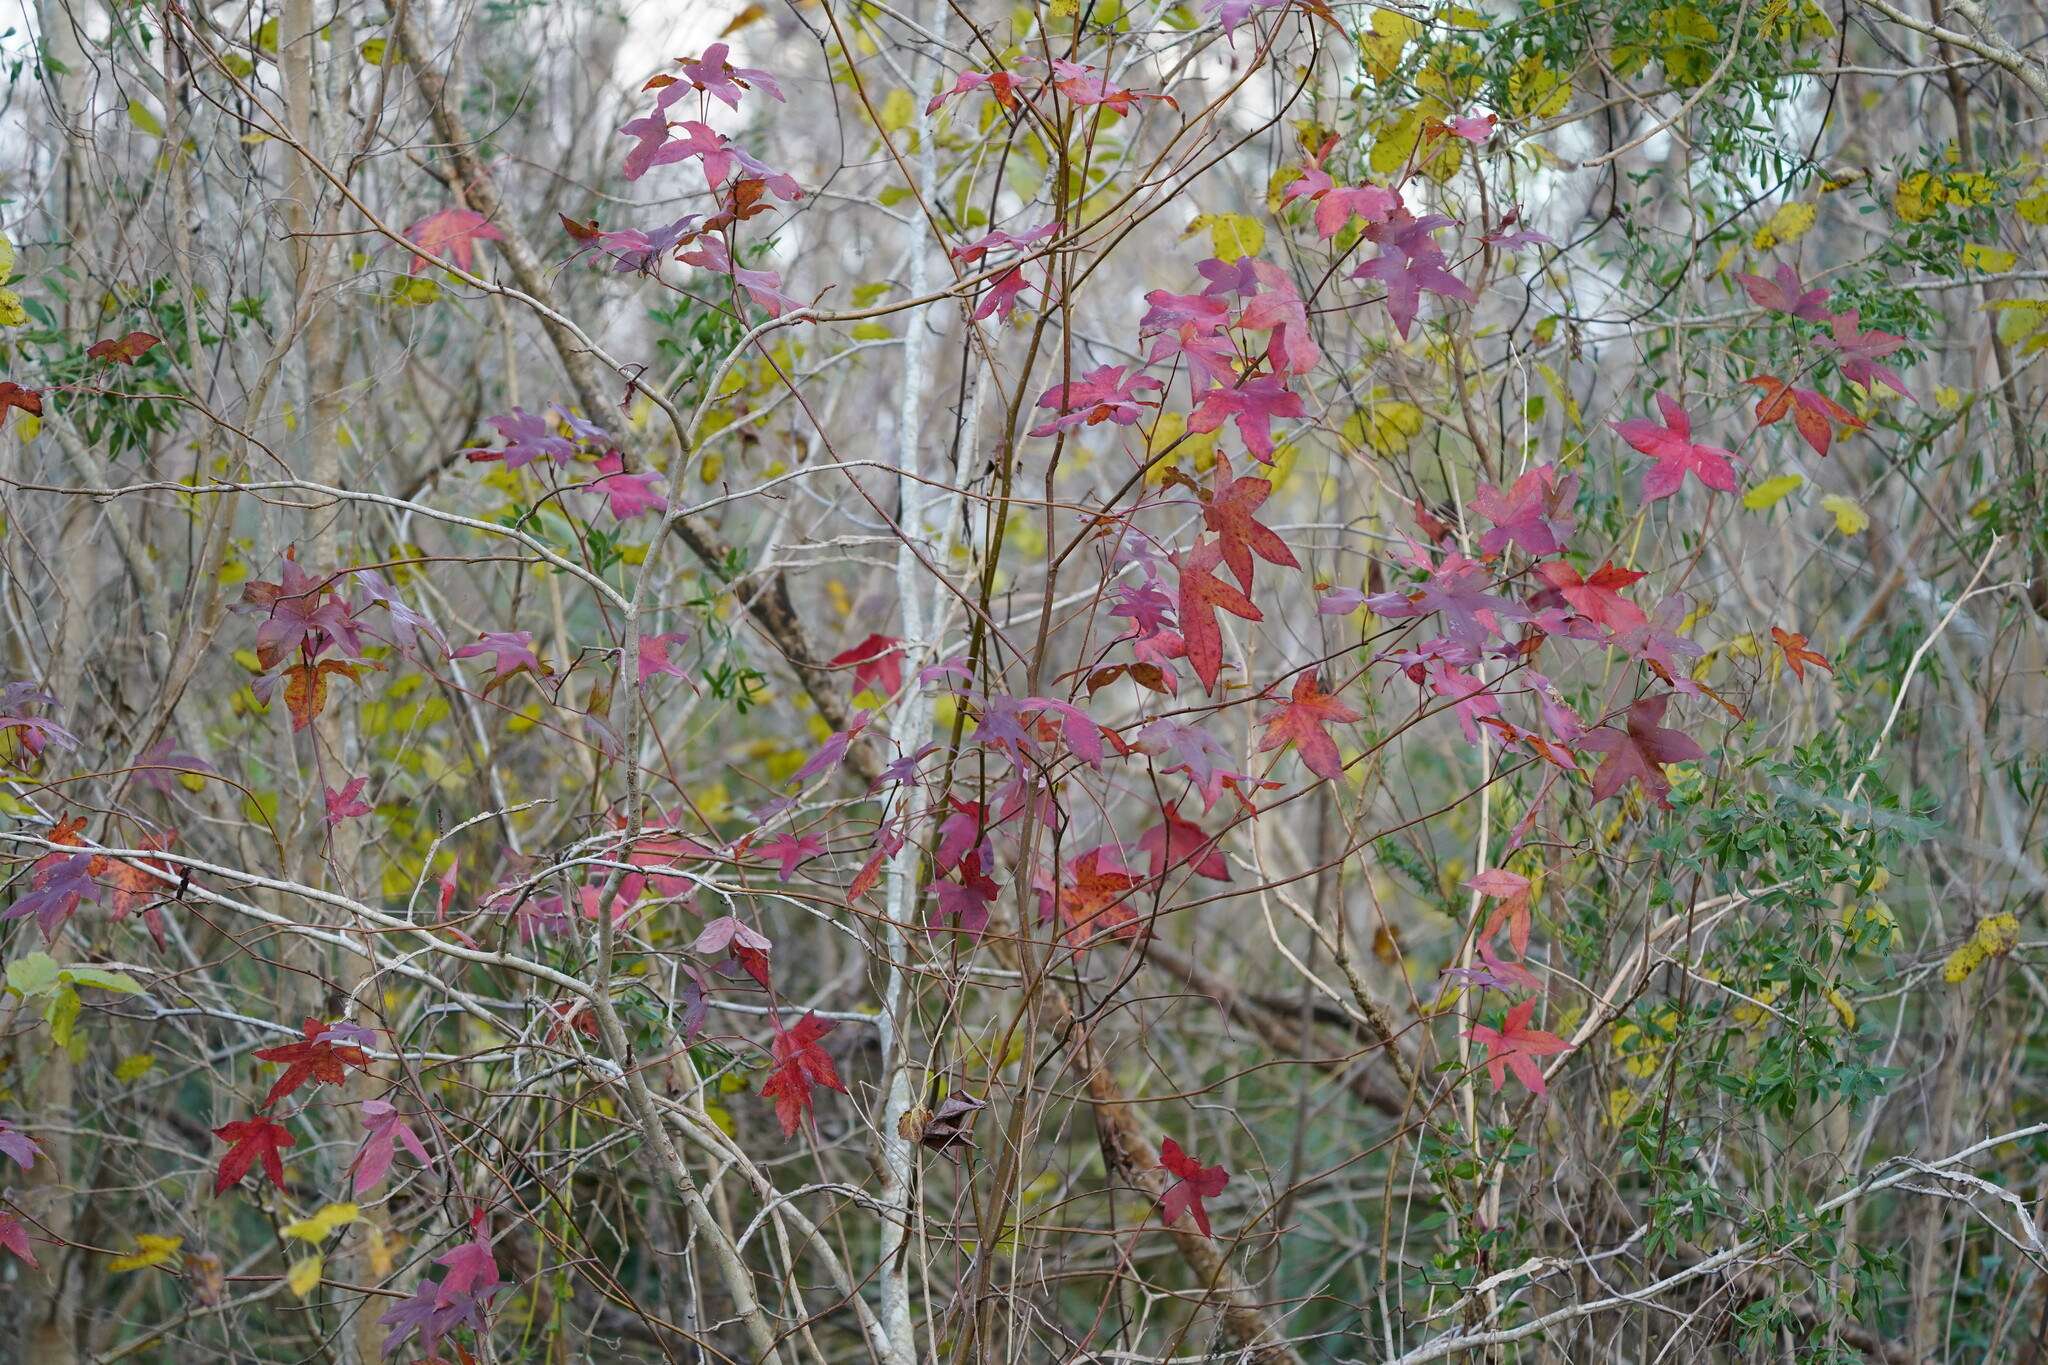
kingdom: Plantae
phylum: Tracheophyta
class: Magnoliopsida
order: Saxifragales
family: Altingiaceae
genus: Liquidambar
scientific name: Liquidambar styraciflua
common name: Sweet gum
